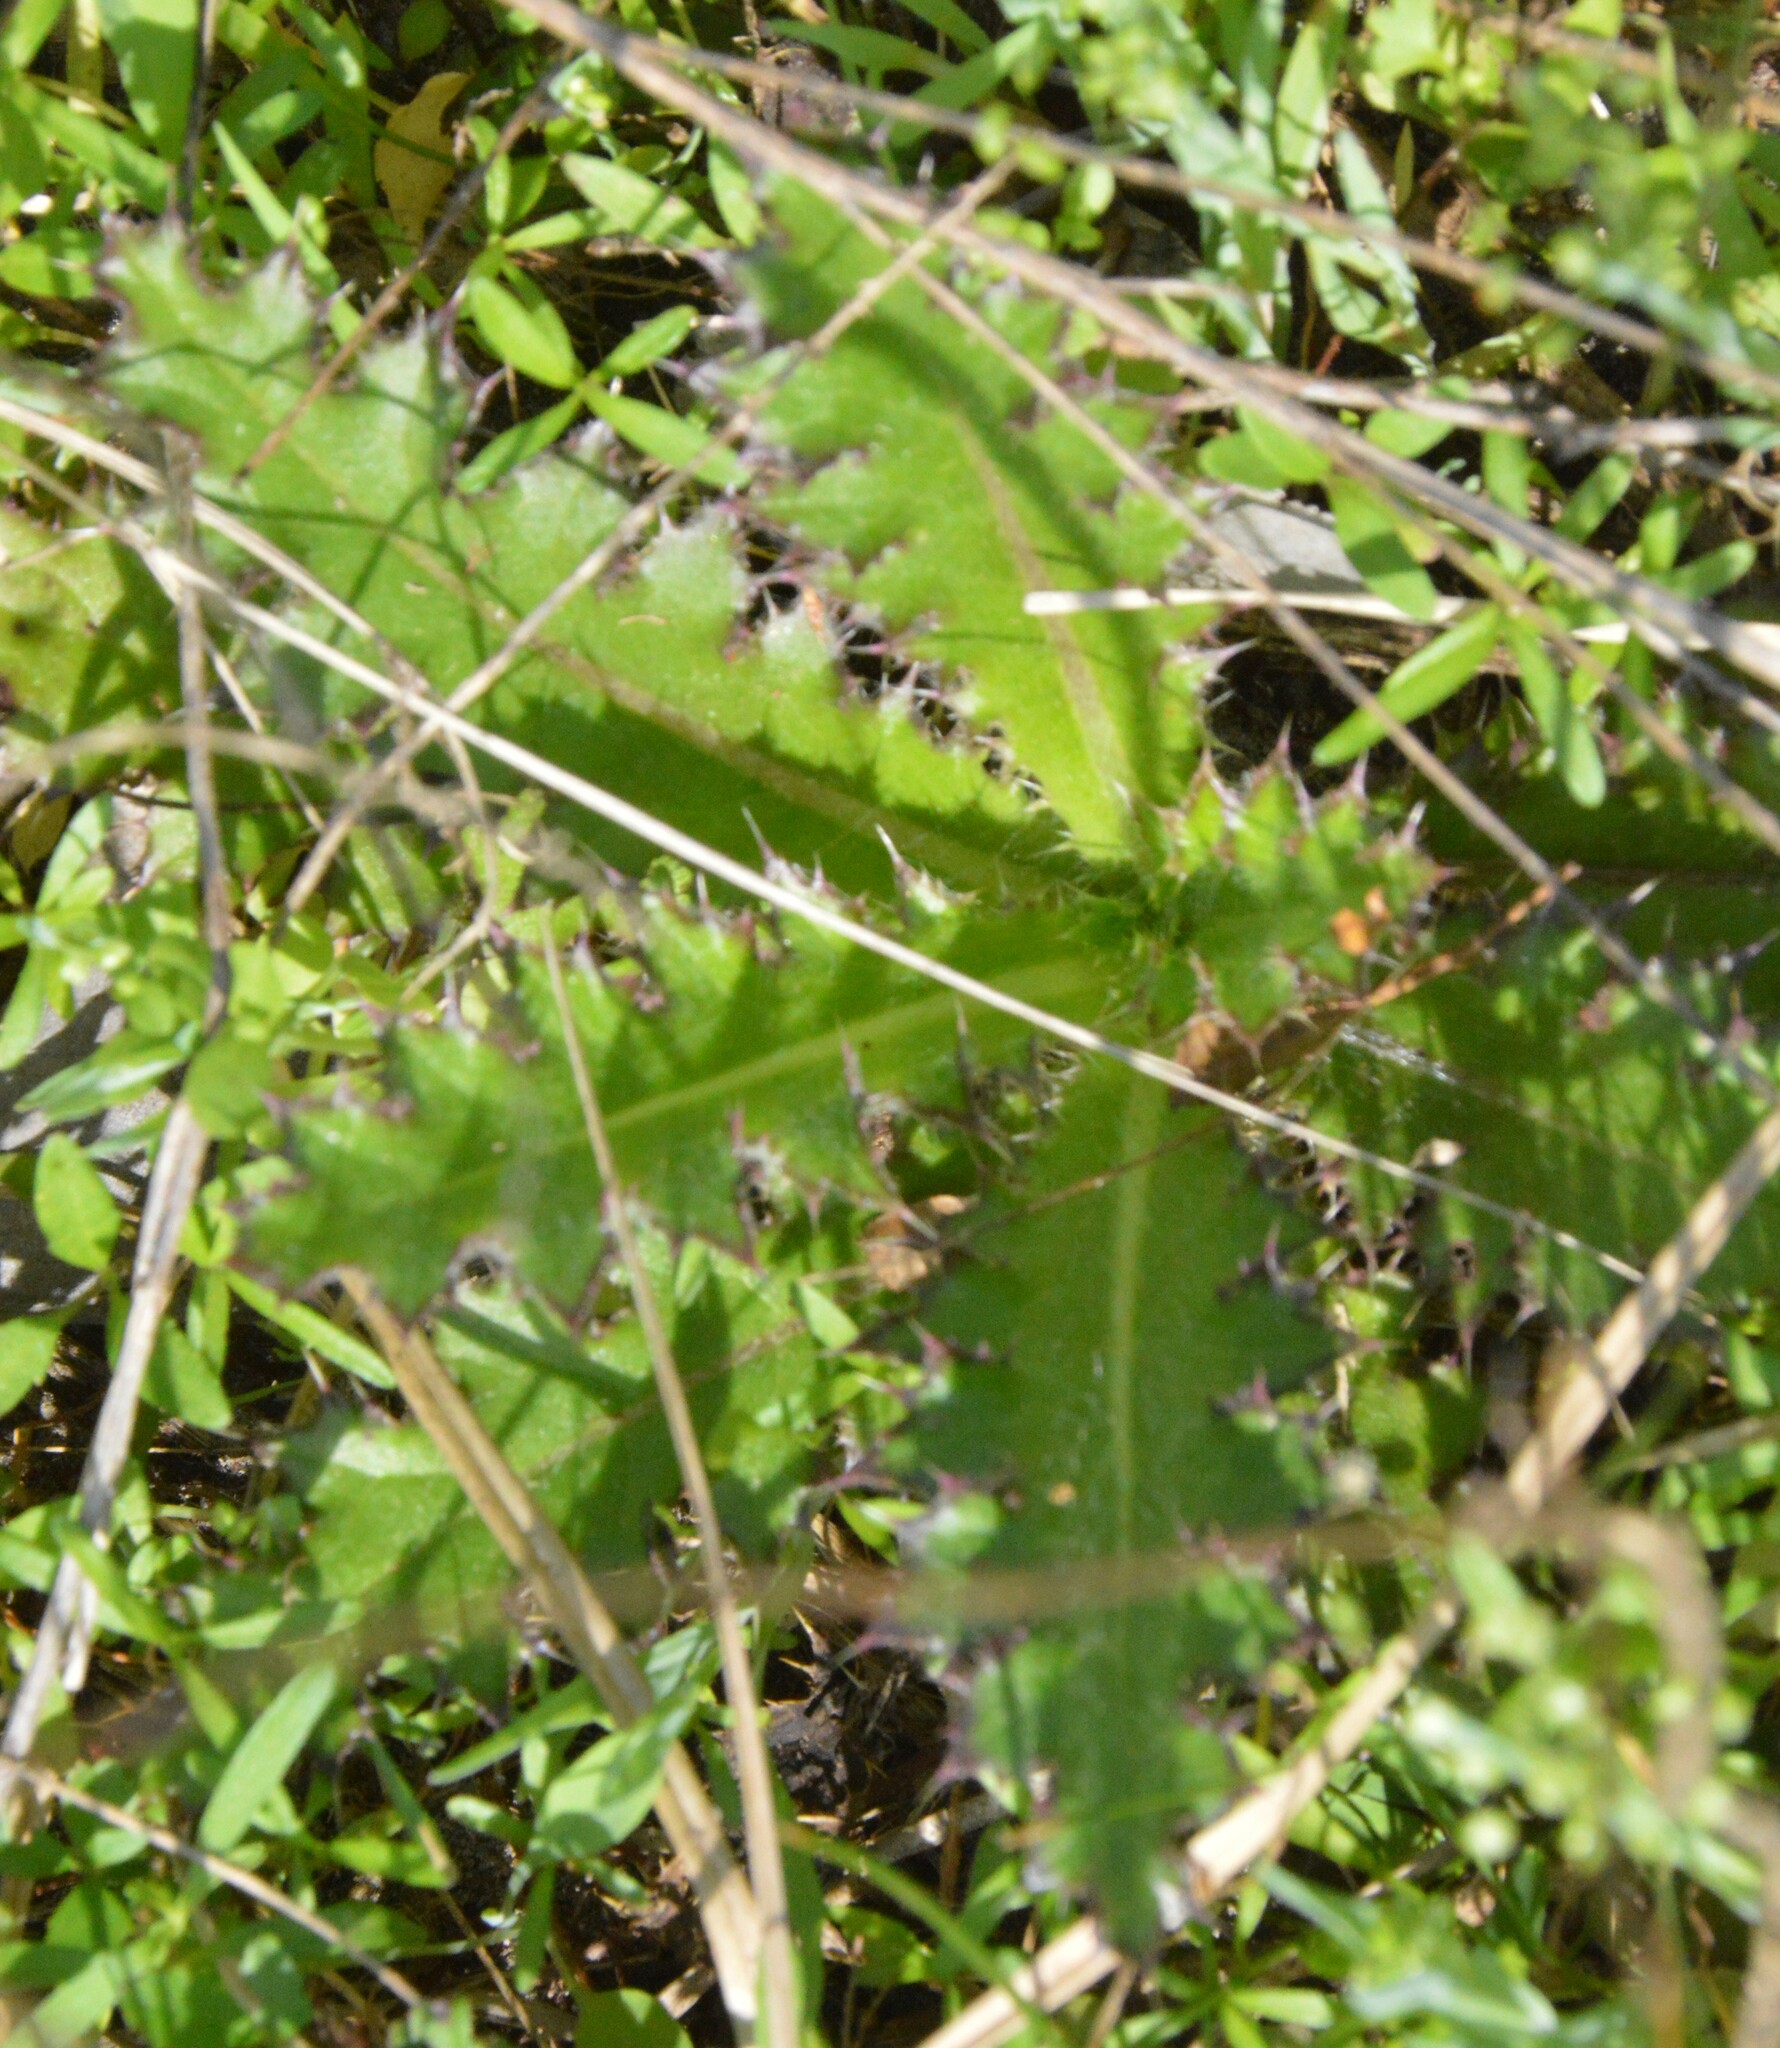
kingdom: Plantae
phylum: Tracheophyta
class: Magnoliopsida
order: Asterales
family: Asteraceae
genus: Cirsium
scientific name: Cirsium horridulum
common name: Bristly thistle
